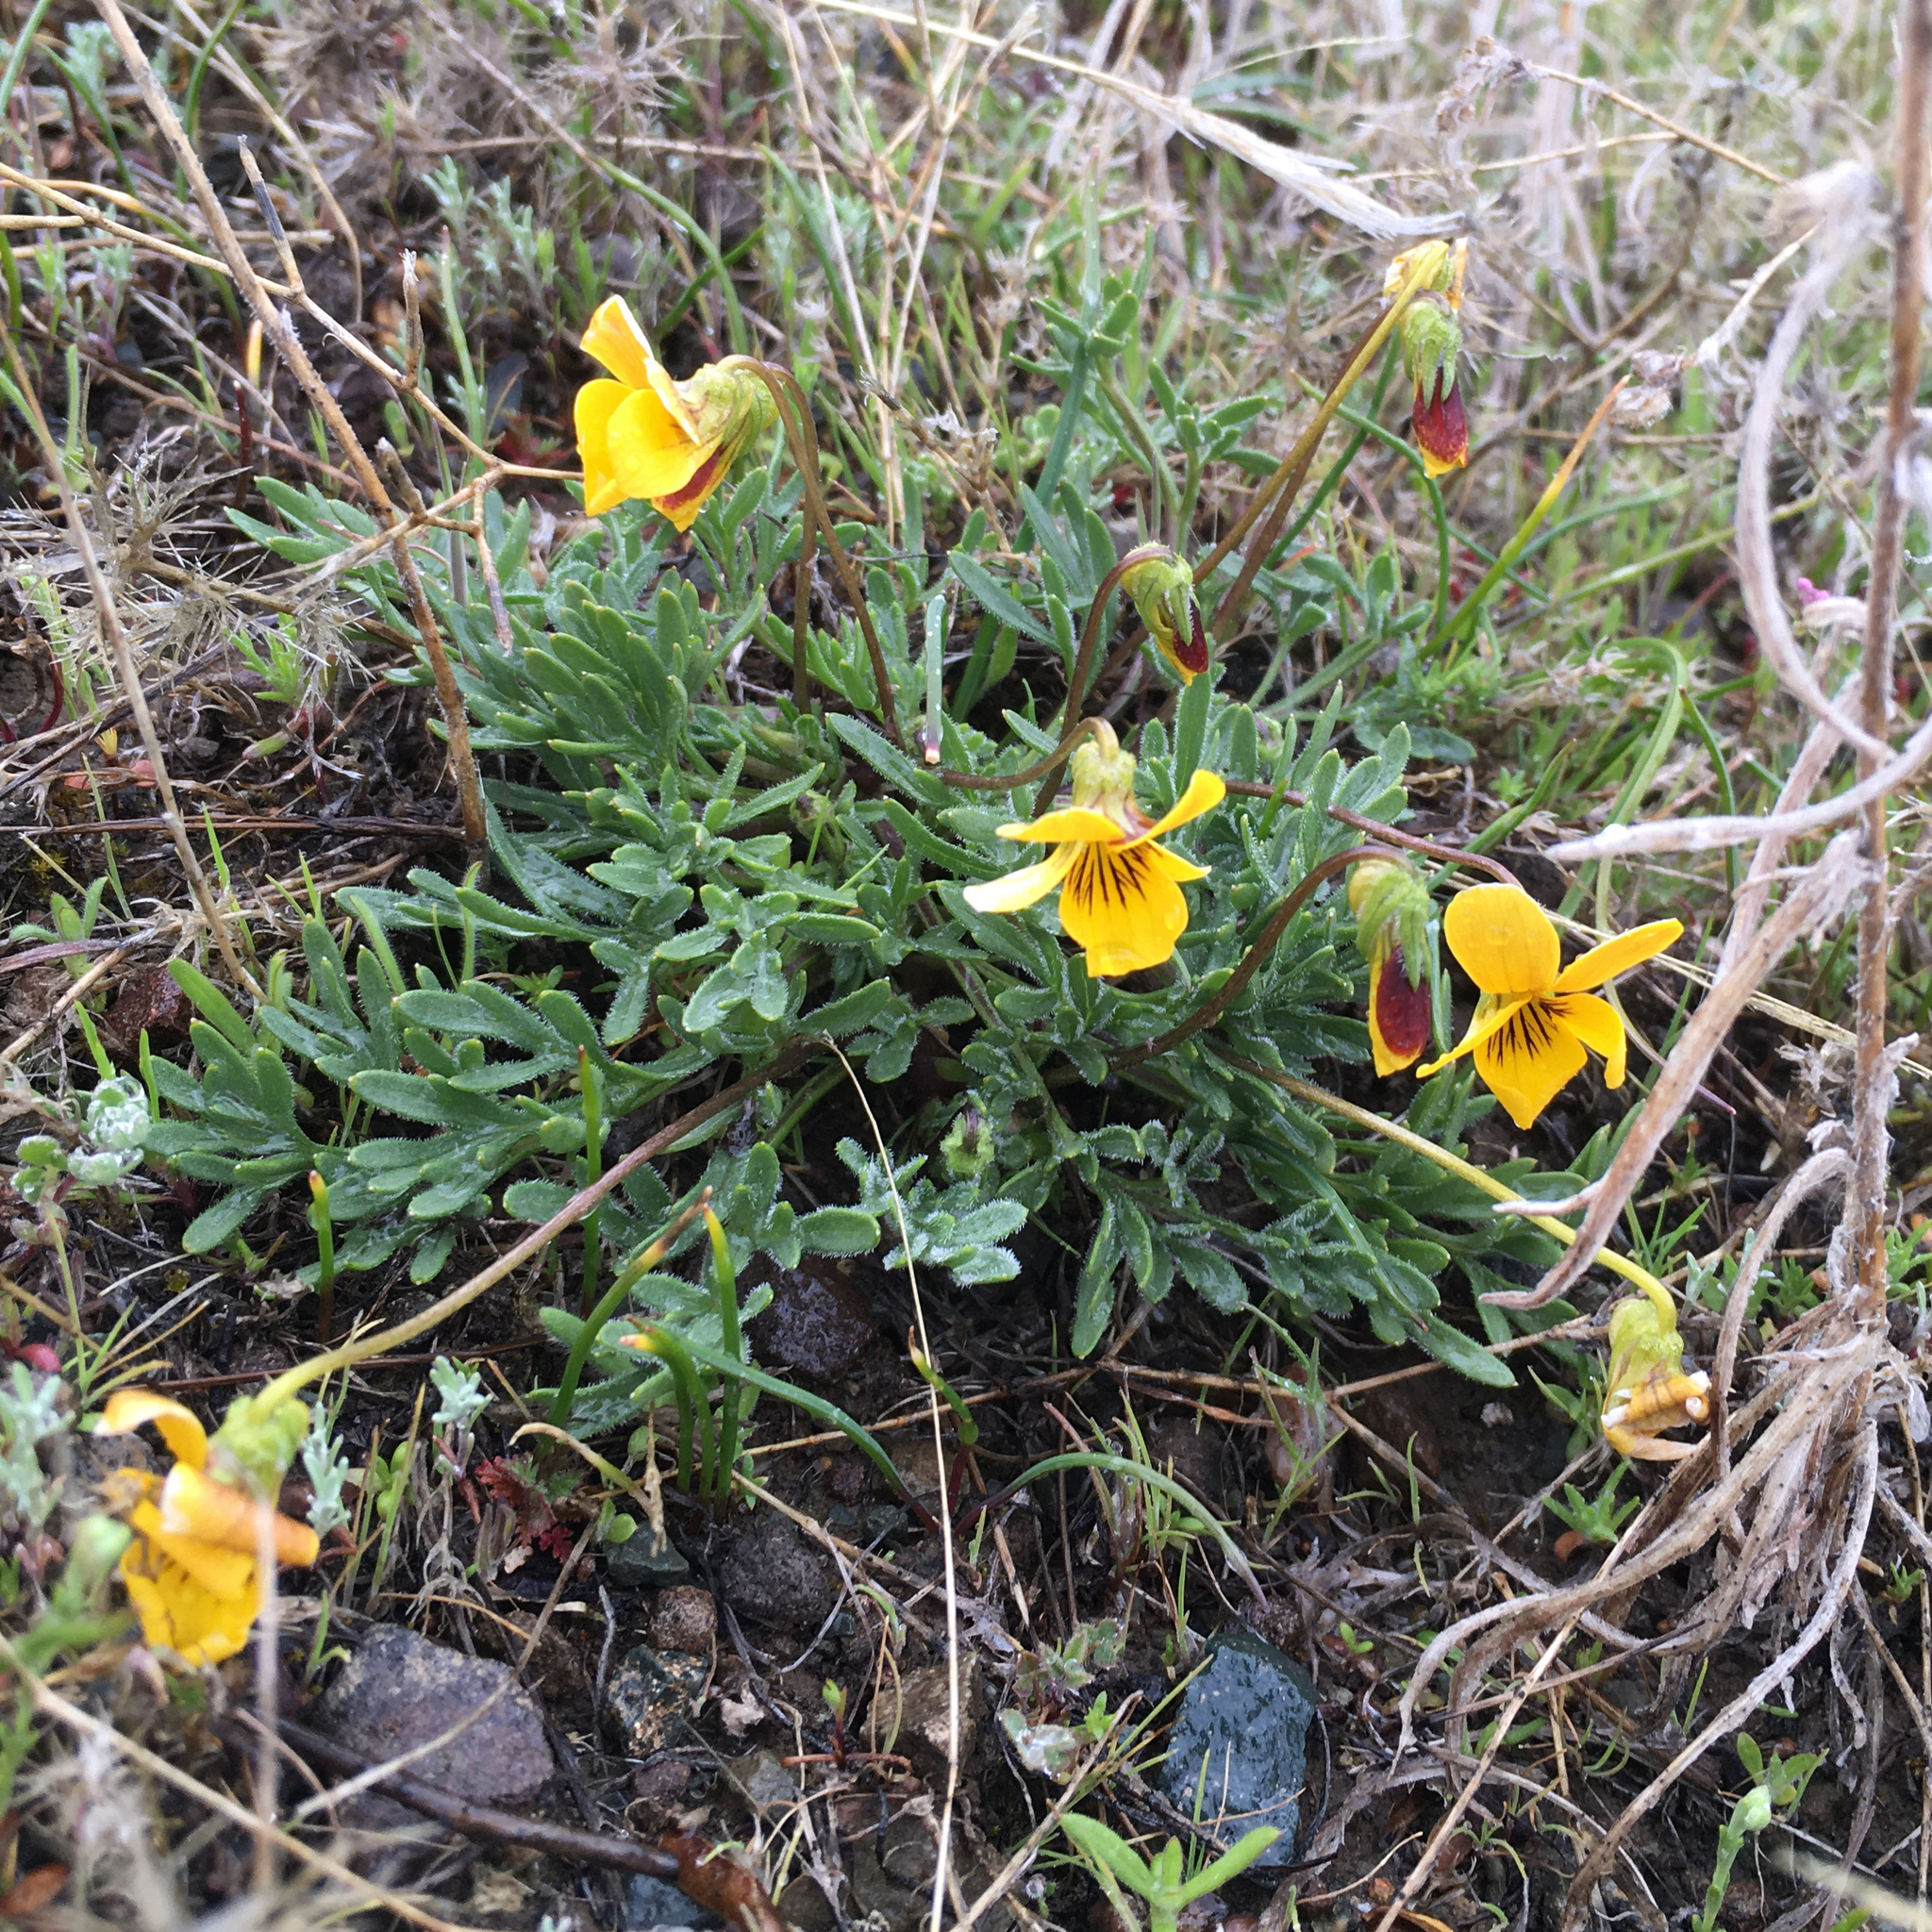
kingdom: Plantae
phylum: Tracheophyta
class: Magnoliopsida
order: Malpighiales
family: Violaceae
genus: Viola
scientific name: Viola douglasii
